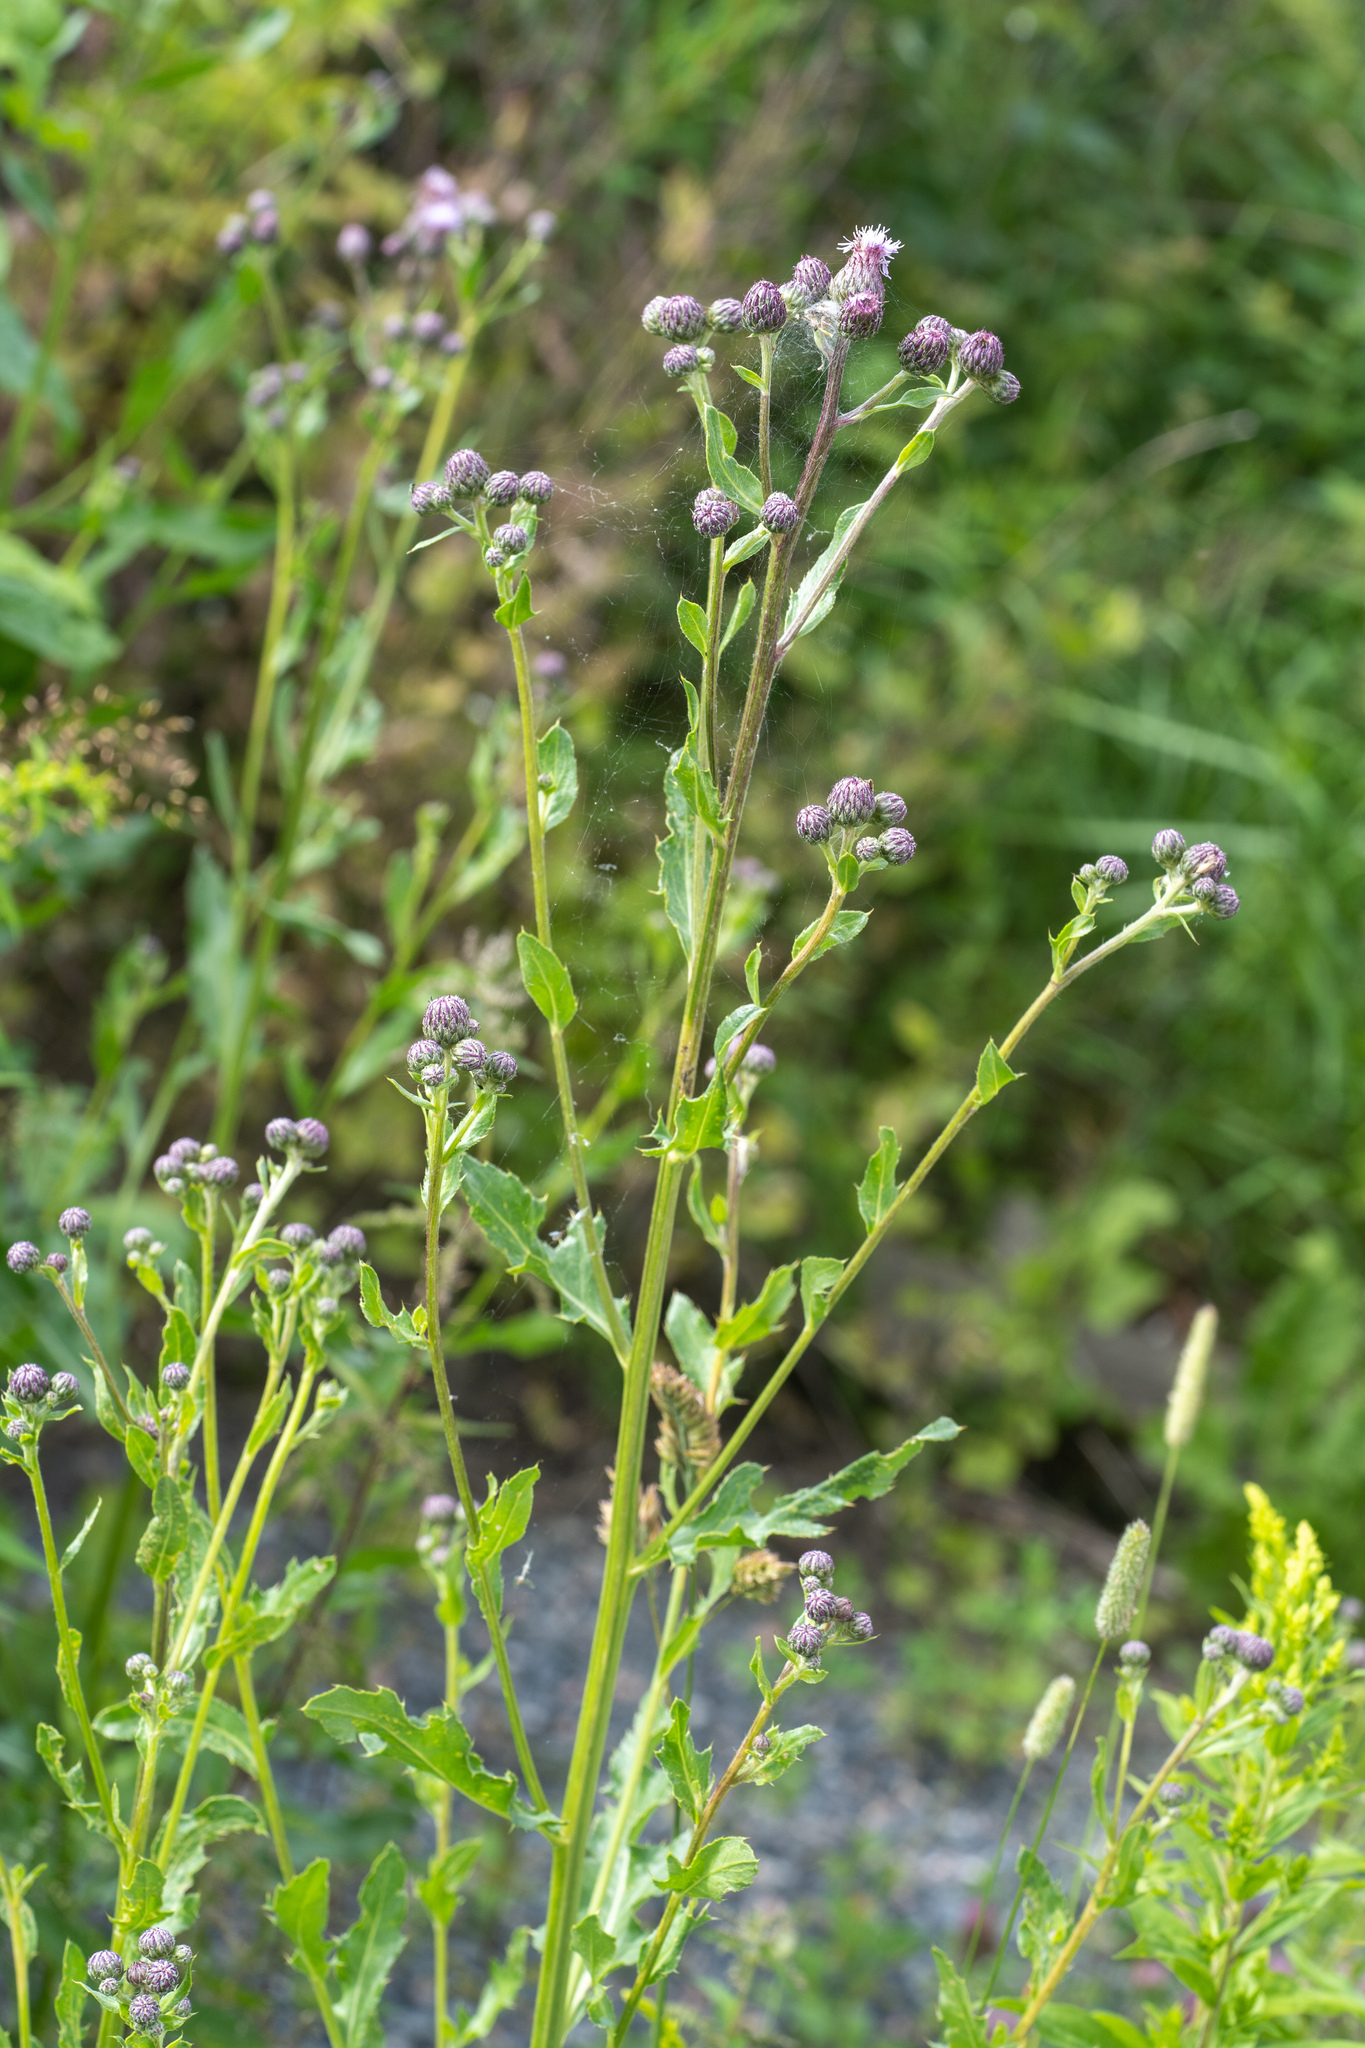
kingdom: Plantae
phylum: Tracheophyta
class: Magnoliopsida
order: Asterales
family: Asteraceae
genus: Cirsium
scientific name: Cirsium arvense
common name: Creeping thistle
